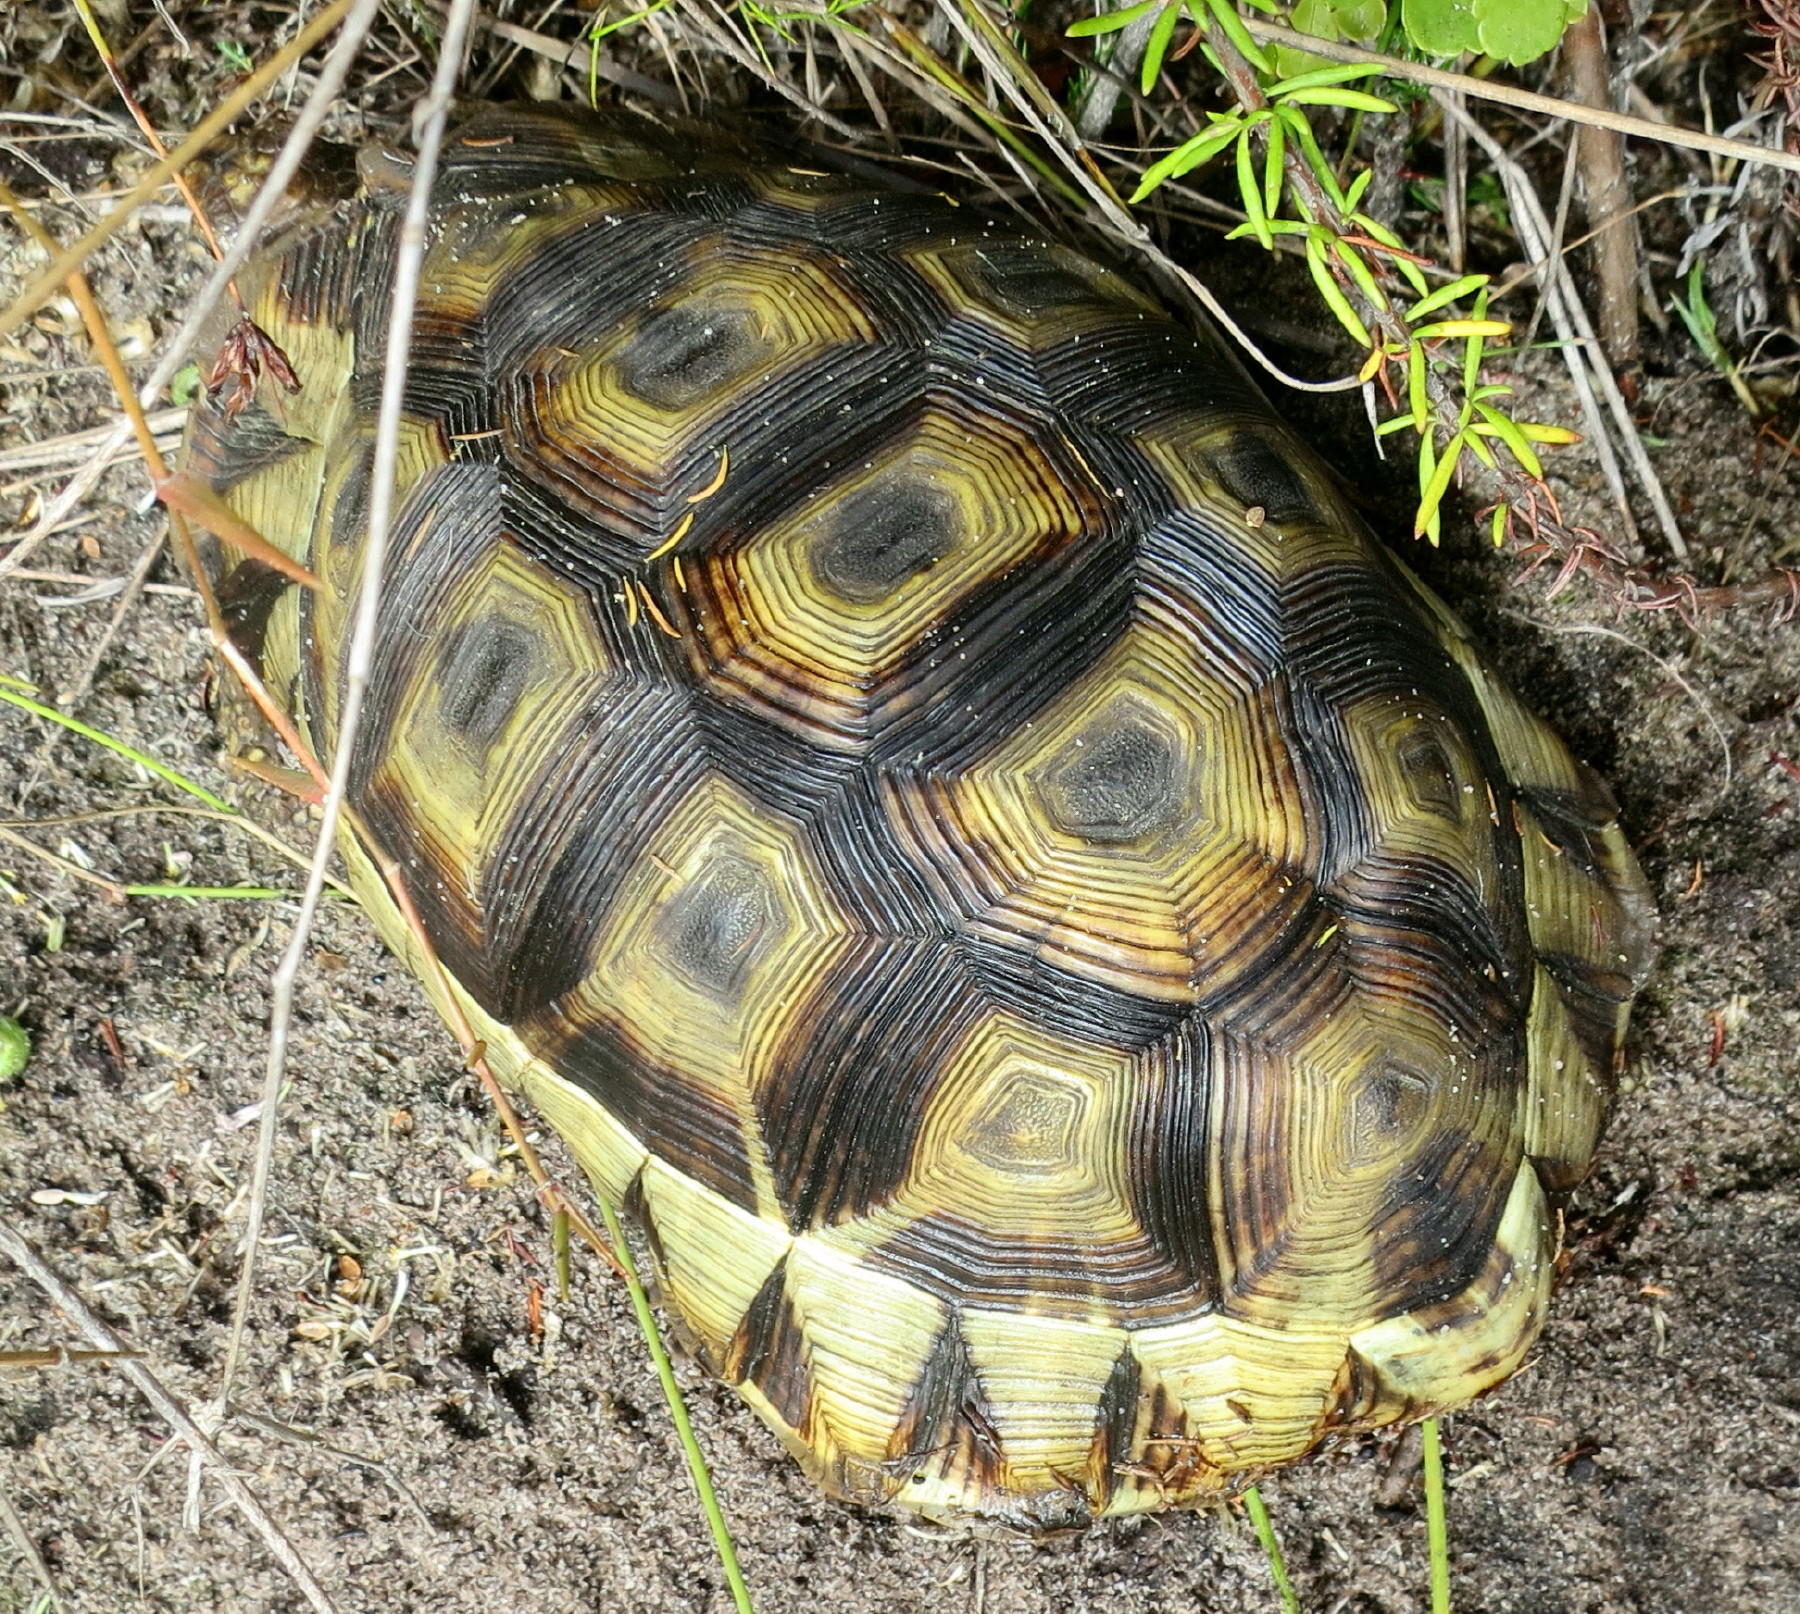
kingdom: Animalia
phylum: Chordata
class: Testudines
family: Testudinidae
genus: Chersina
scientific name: Chersina angulata
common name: South african bowsprit tortoise
